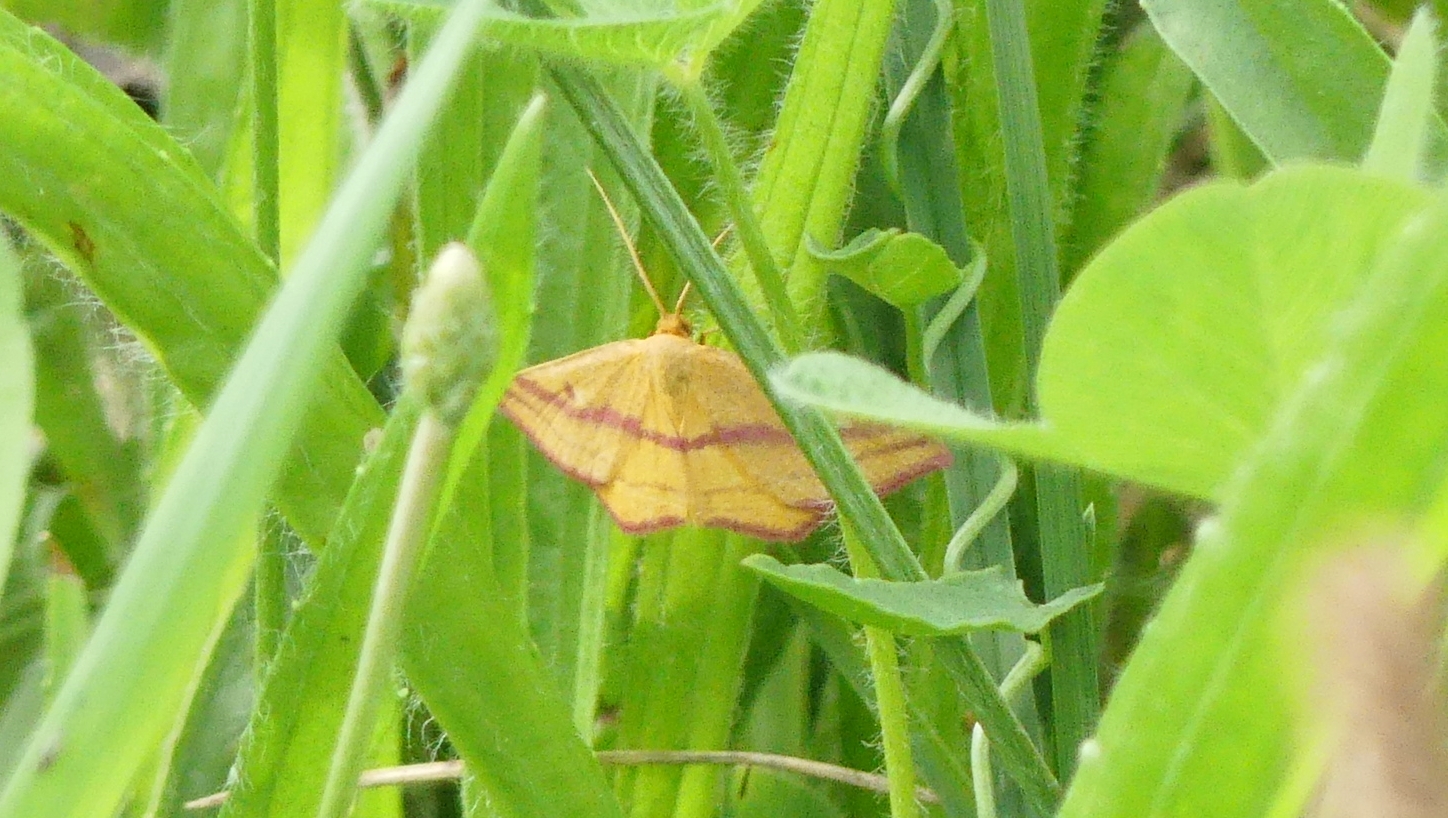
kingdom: Animalia
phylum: Arthropoda
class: Insecta
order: Lepidoptera
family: Geometridae
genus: Haematopis
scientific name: Haematopis grataria
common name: Chickweed geometer
